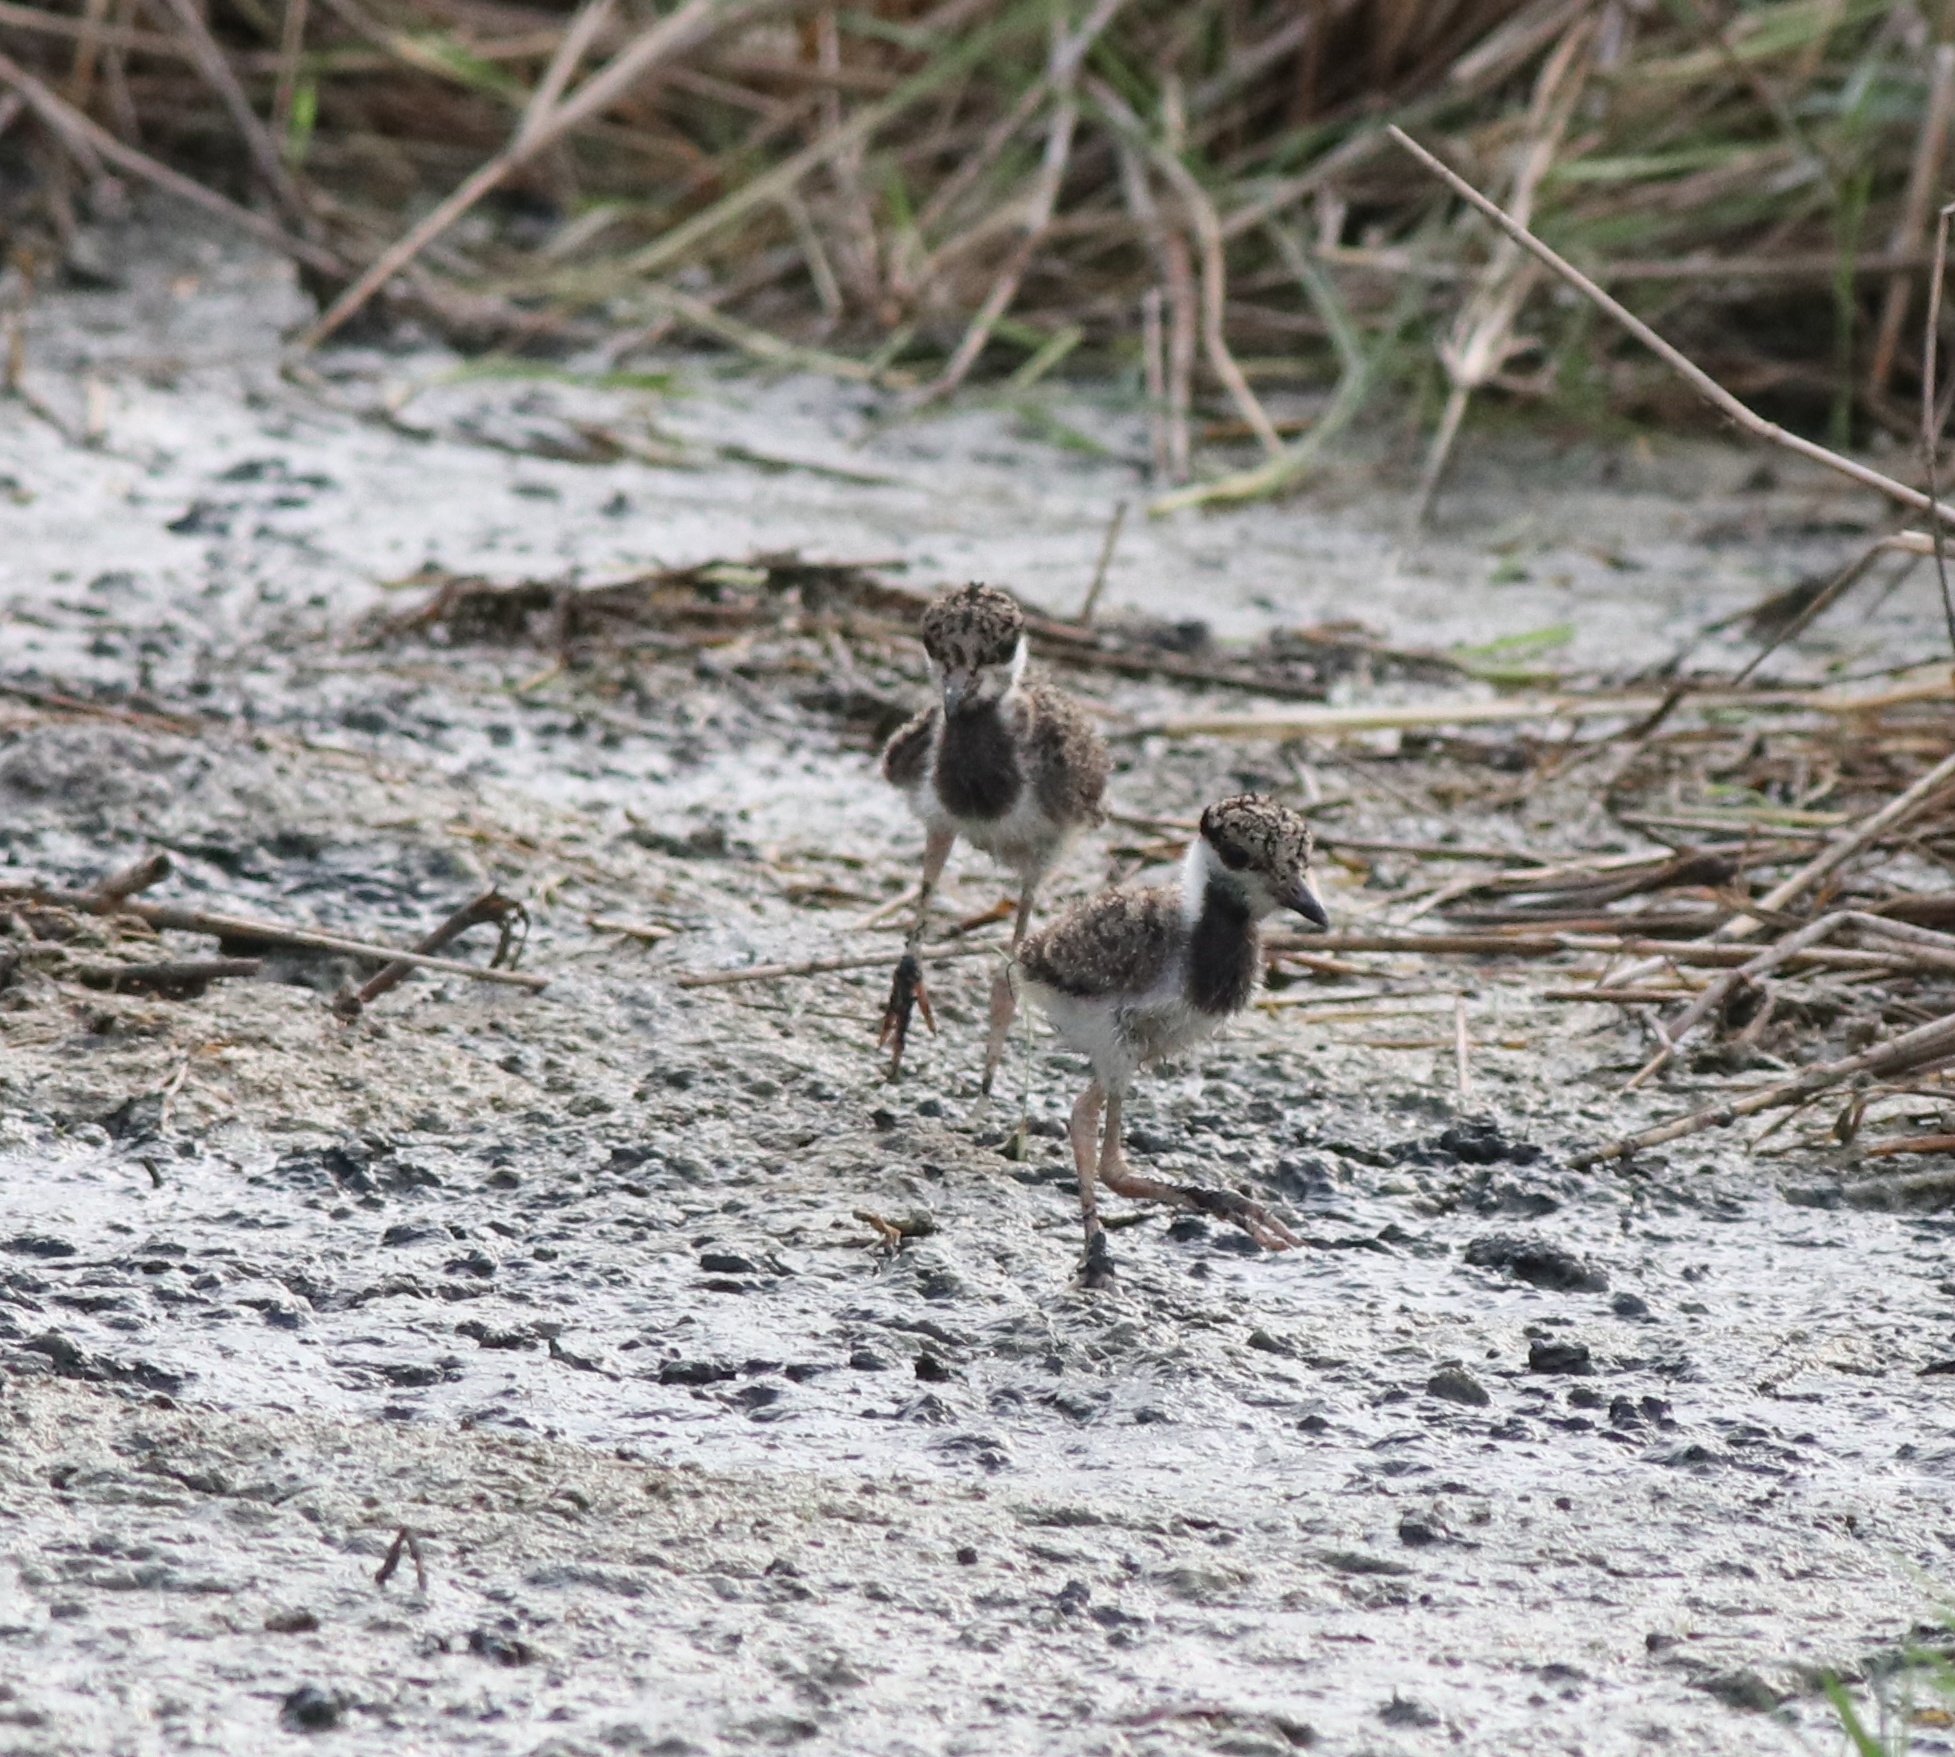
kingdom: Animalia
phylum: Chordata
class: Aves
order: Charadriiformes
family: Charadriidae
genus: Vanellus
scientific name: Vanellus indicus
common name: Red-wattled lapwing
